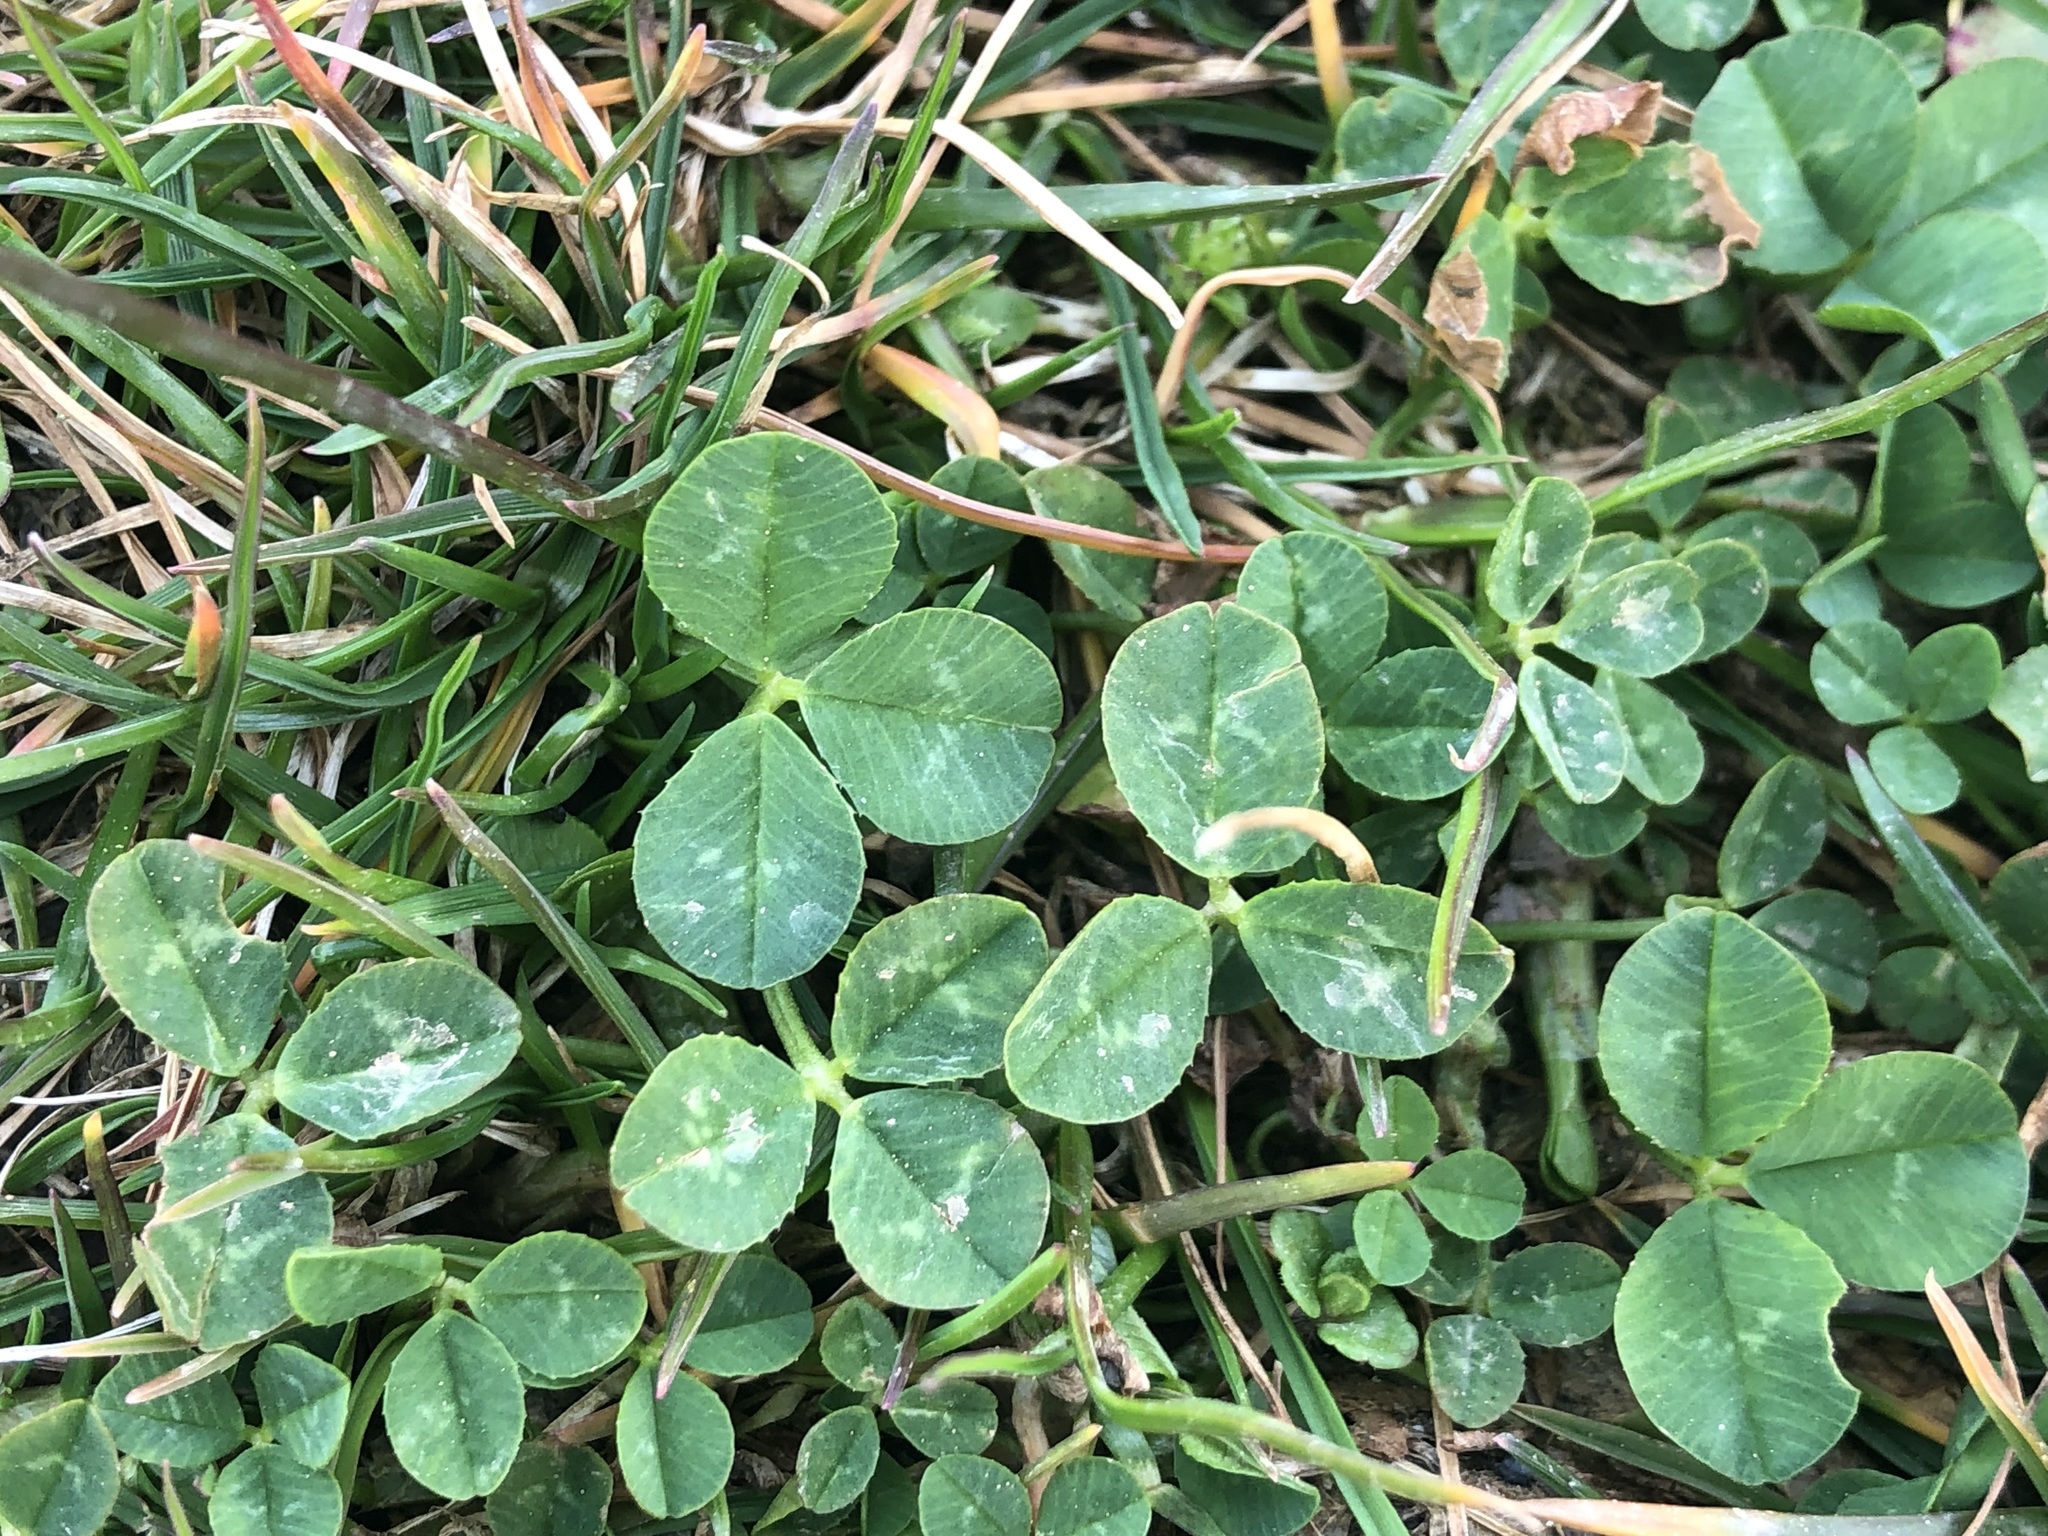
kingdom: Plantae
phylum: Tracheophyta
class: Magnoliopsida
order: Fabales
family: Fabaceae
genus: Trifolium
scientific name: Trifolium repens
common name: White clover
